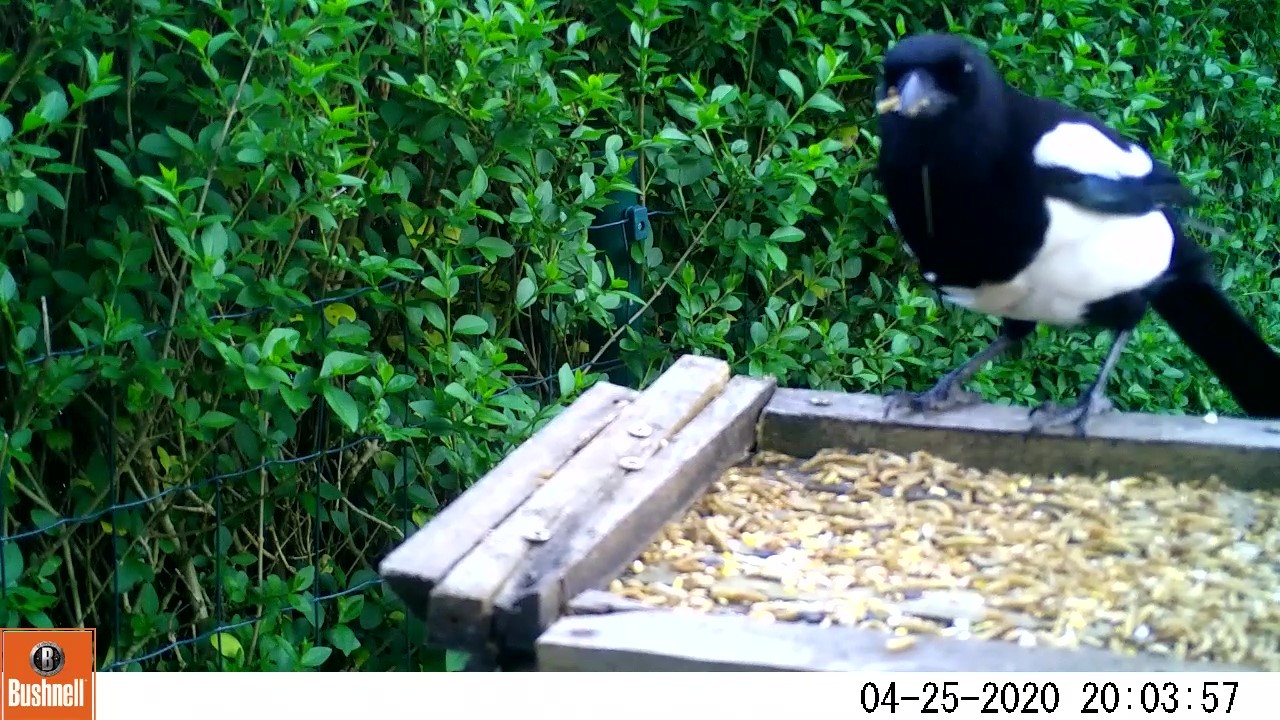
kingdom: Animalia
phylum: Chordata
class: Aves
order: Passeriformes
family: Corvidae
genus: Pica
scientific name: Pica pica
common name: Eurasian magpie
